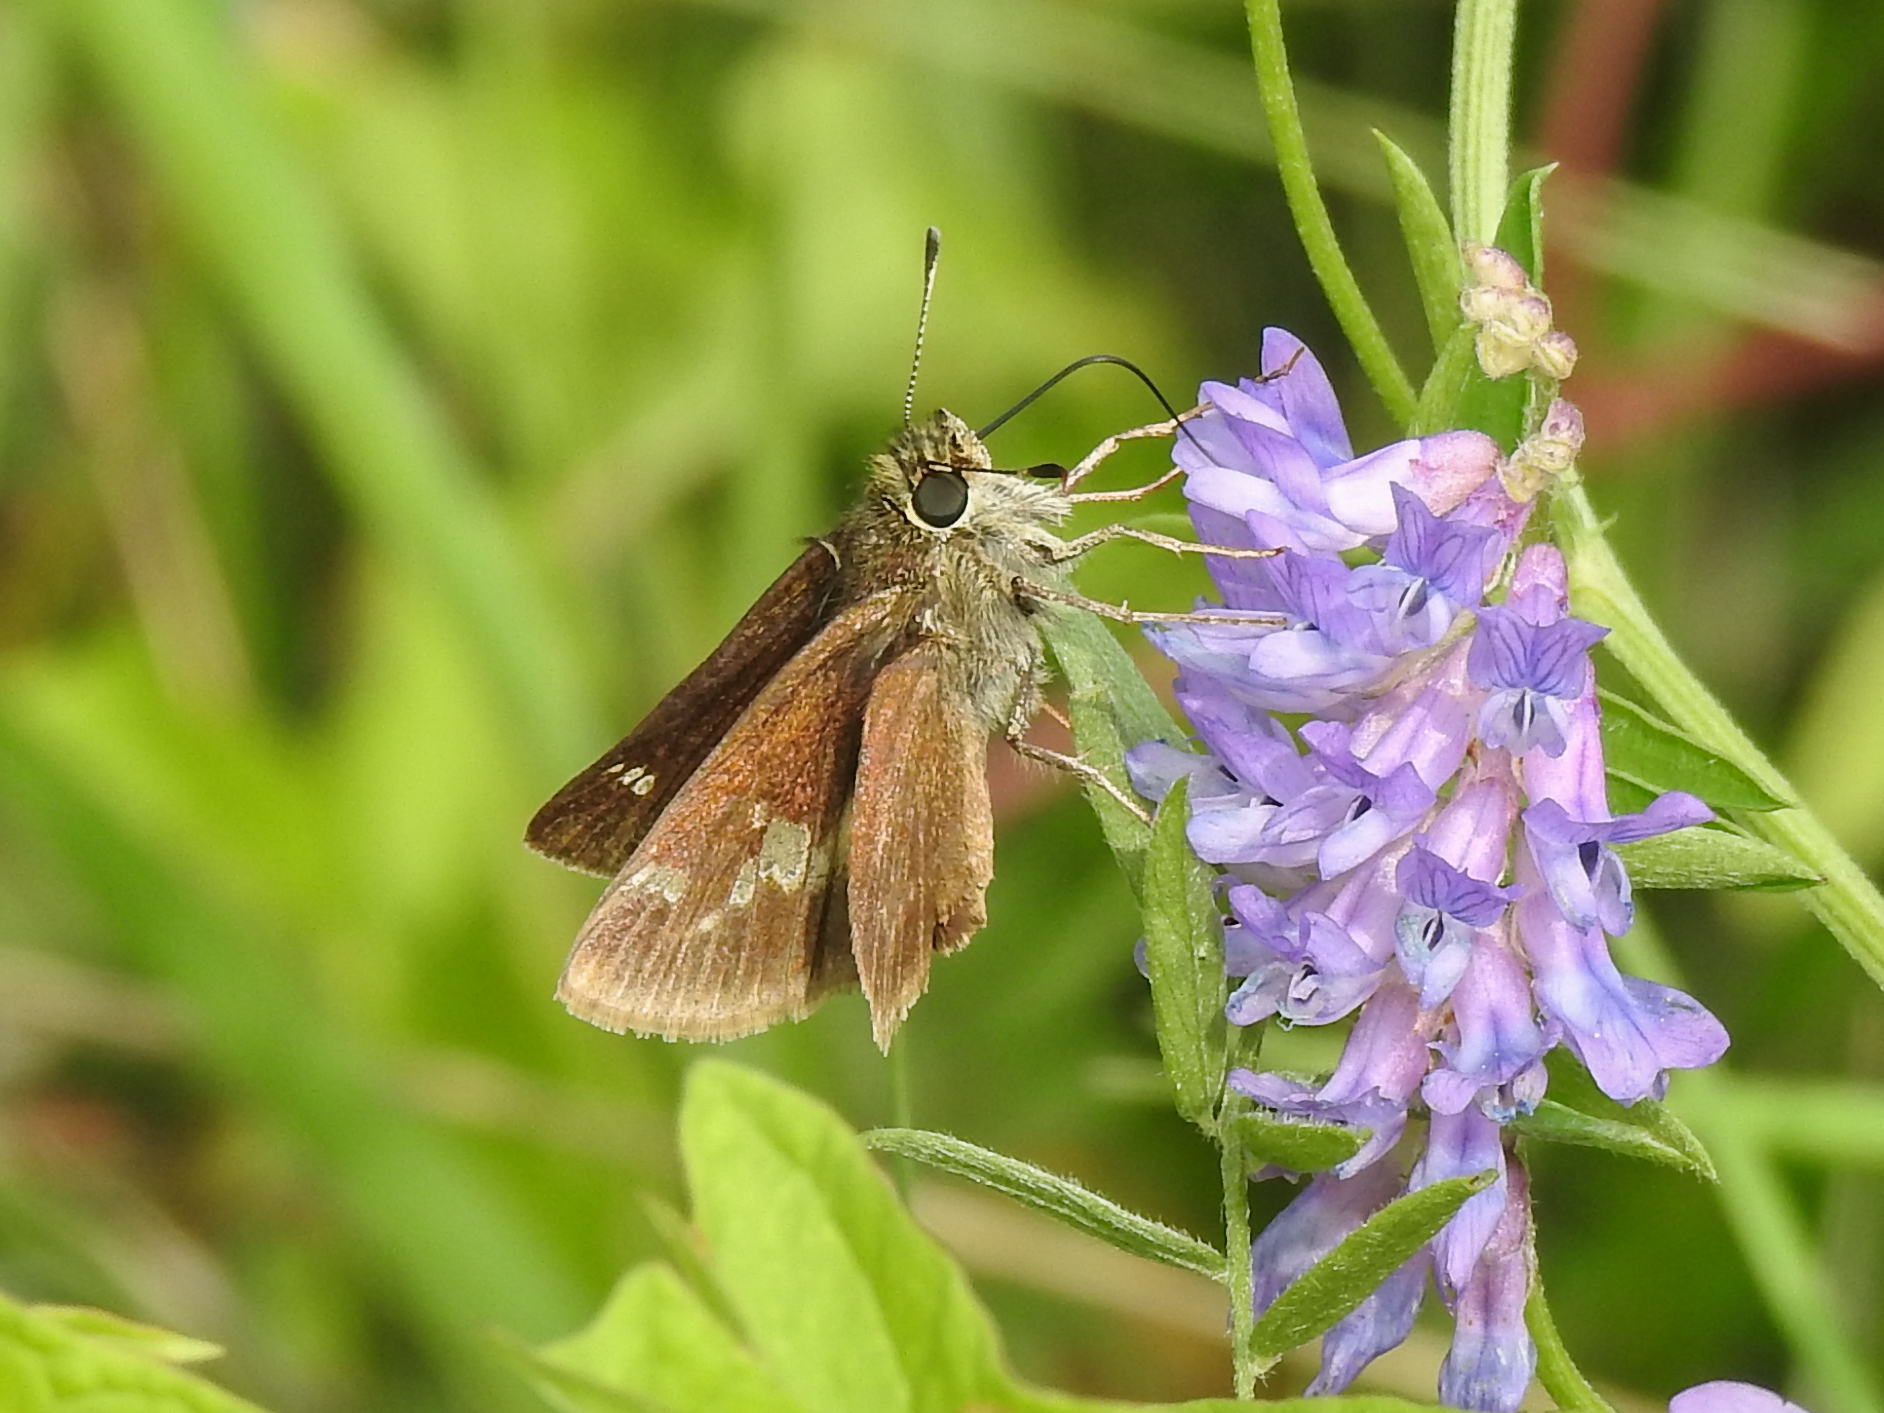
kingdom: Animalia
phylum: Arthropoda
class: Insecta
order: Lepidoptera
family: Hesperiidae
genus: Vernia
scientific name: Vernia verna
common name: Little glassywing
